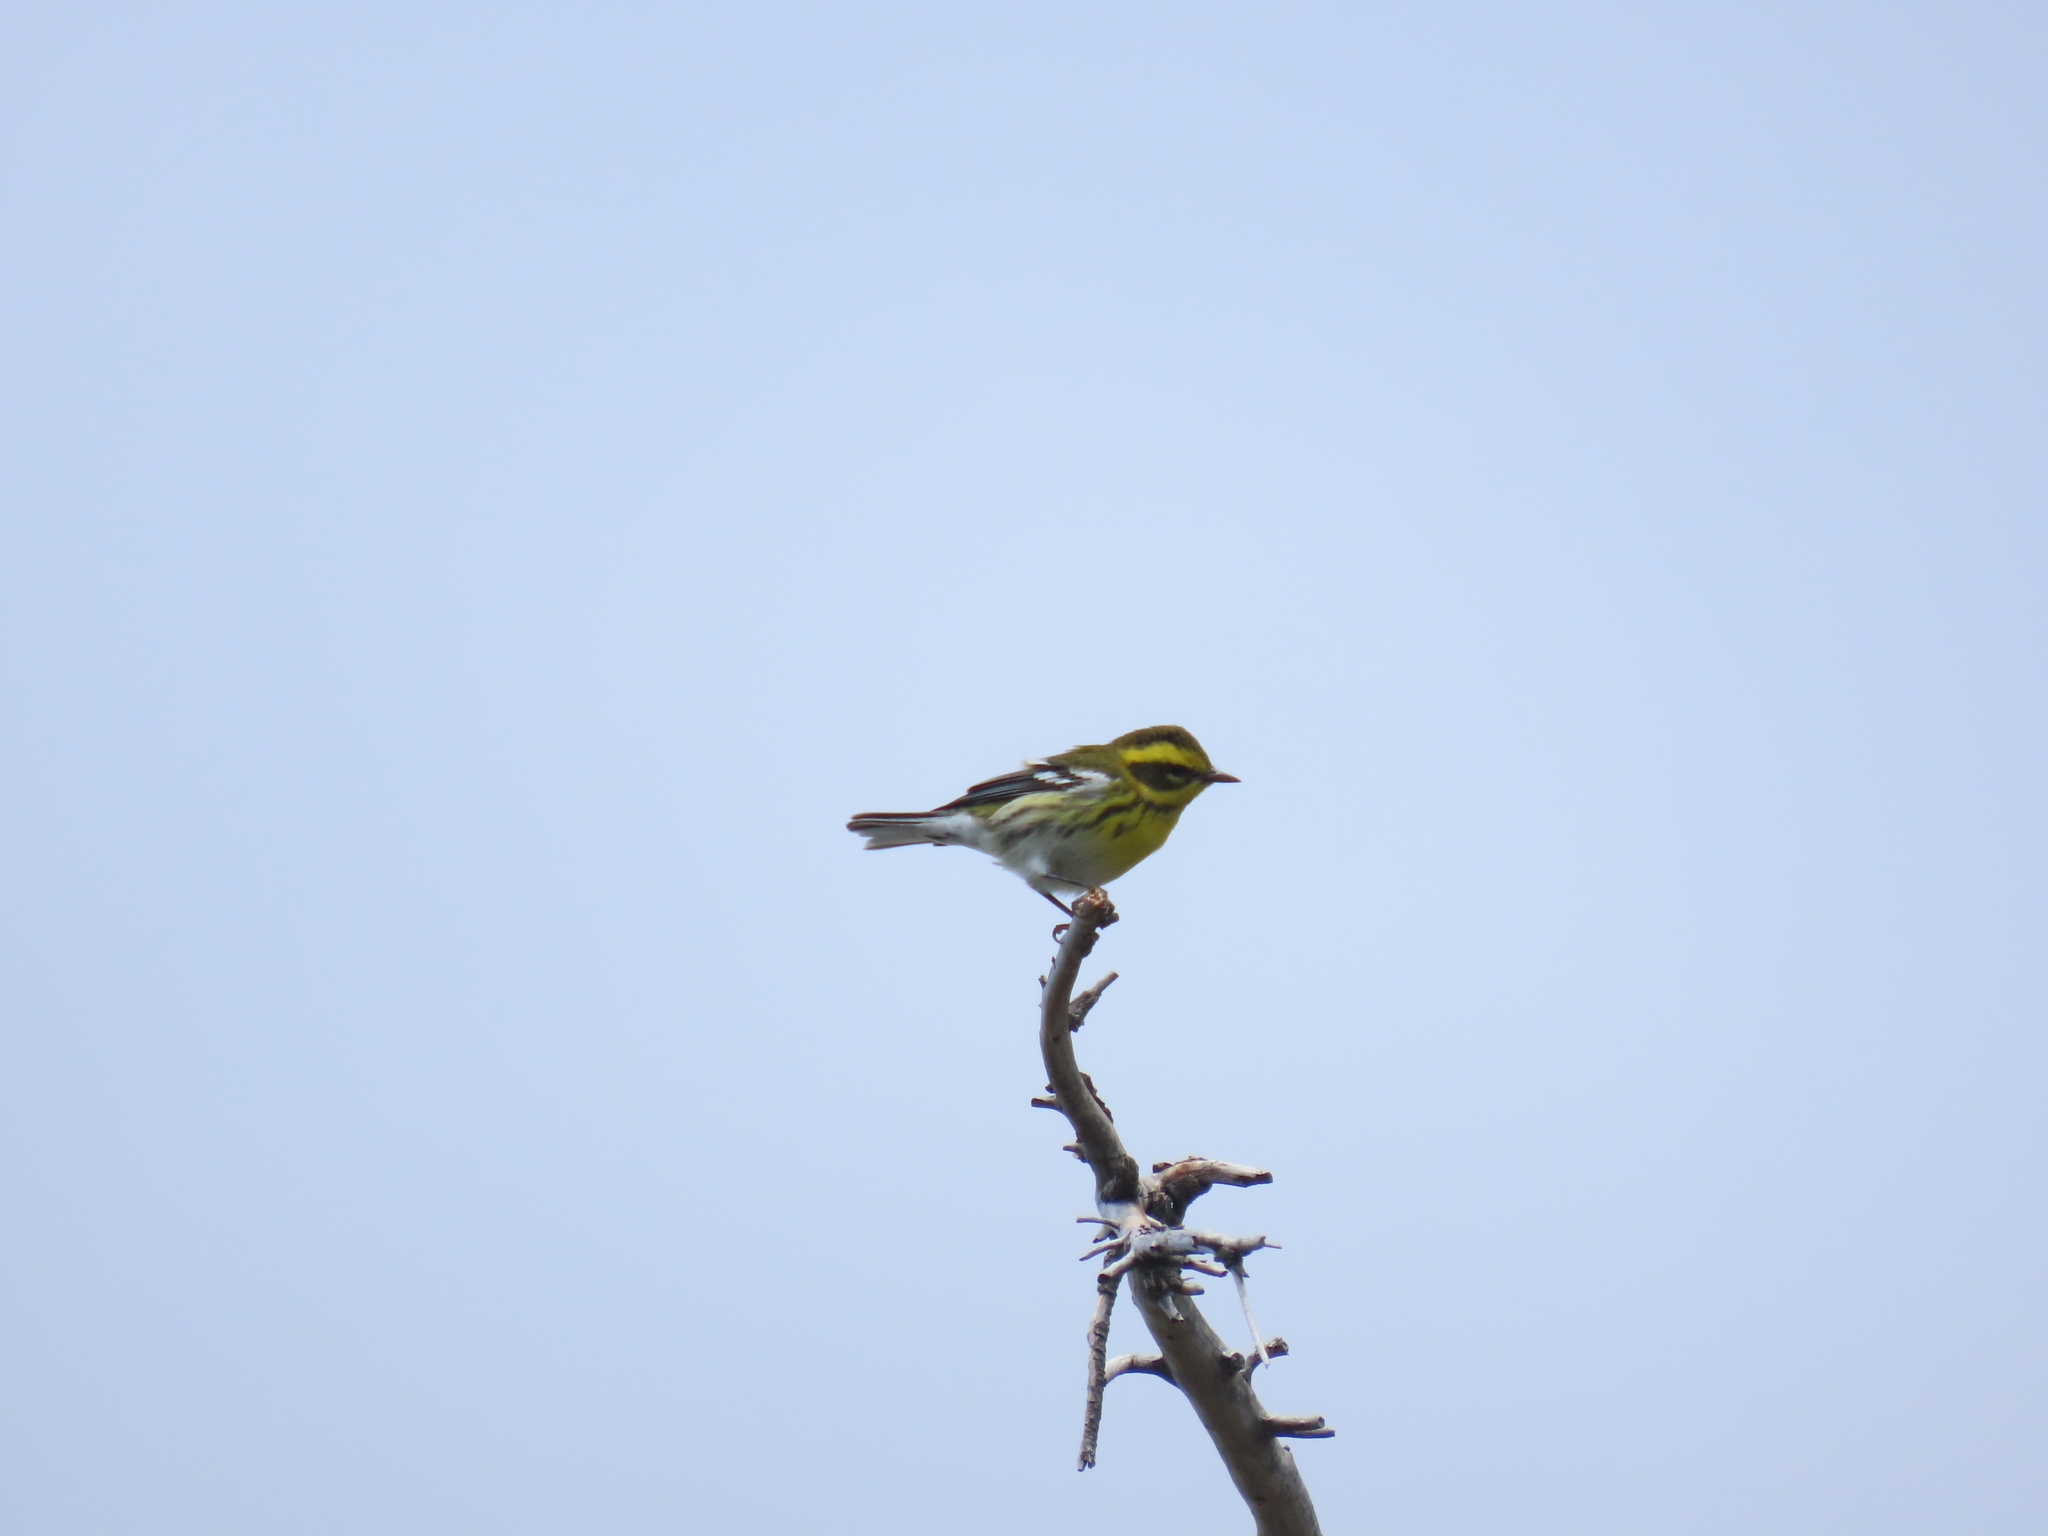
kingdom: Animalia
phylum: Chordata
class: Aves
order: Passeriformes
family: Parulidae
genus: Setophaga
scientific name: Setophaga townsendi
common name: Townsend's warbler
